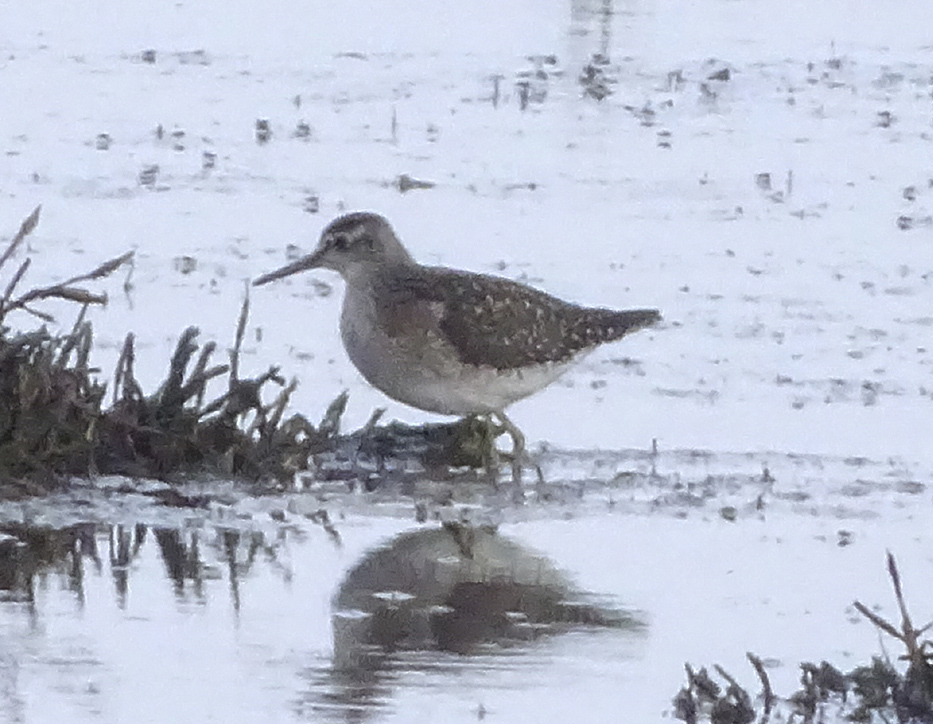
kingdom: Animalia
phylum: Chordata
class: Aves
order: Charadriiformes
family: Scolopacidae
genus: Tringa
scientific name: Tringa glareola
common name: Wood sandpiper
